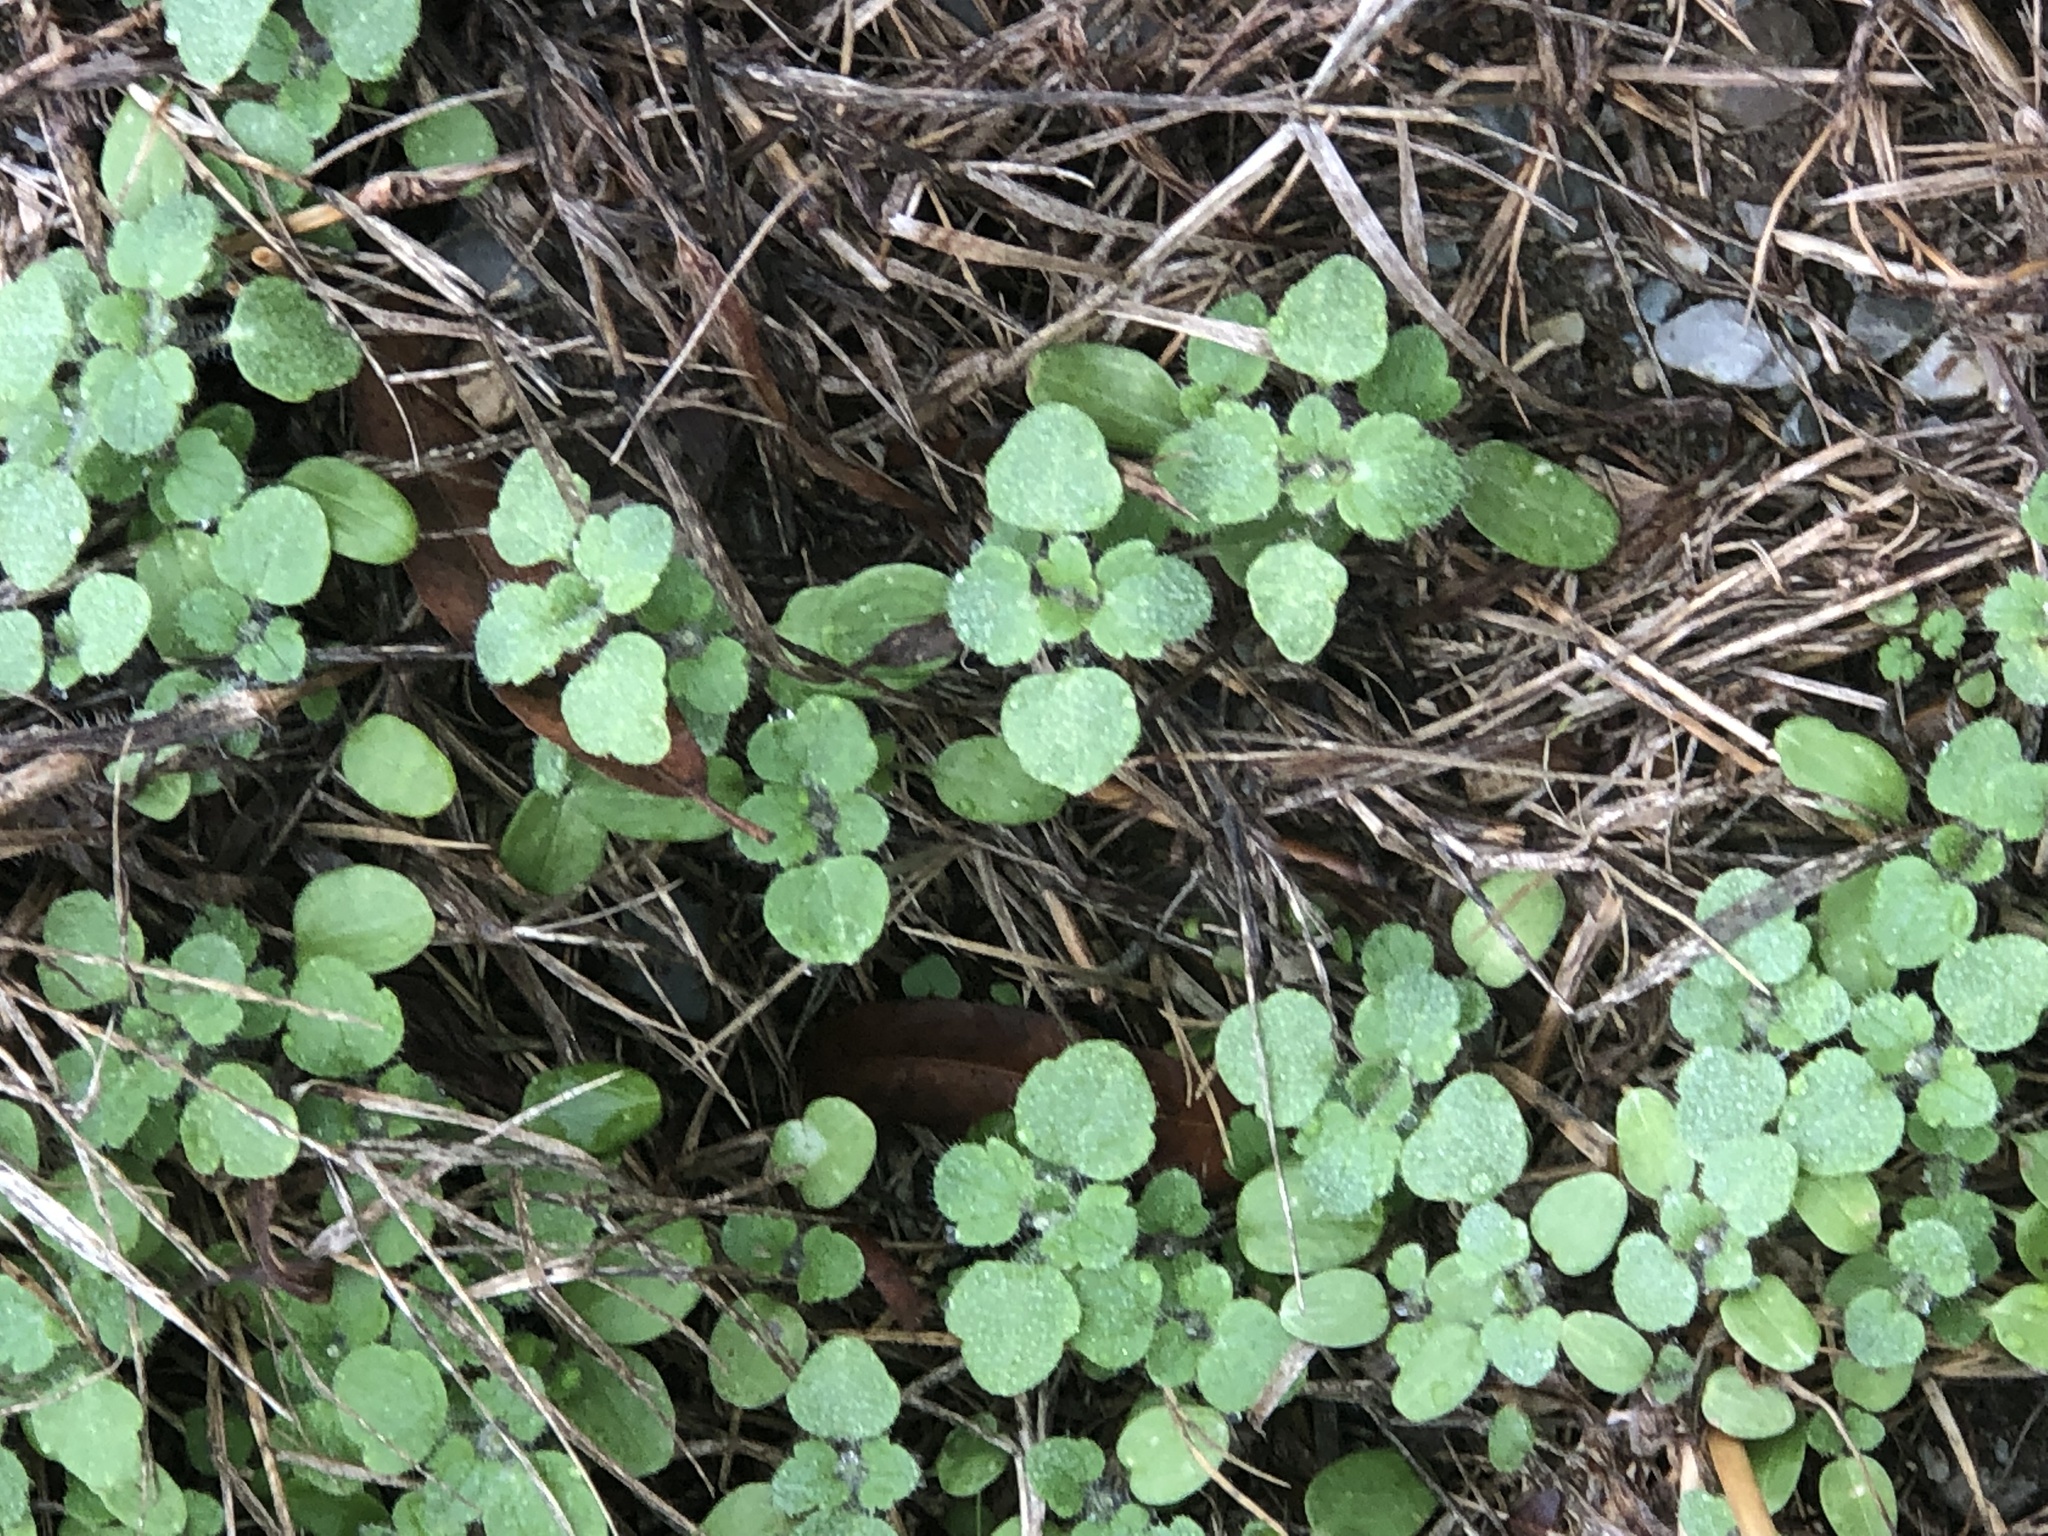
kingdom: Plantae
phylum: Tracheophyta
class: Magnoliopsida
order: Lamiales
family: Lamiaceae
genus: Lamium
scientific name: Lamium amplexicaule
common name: Henbit dead-nettle
